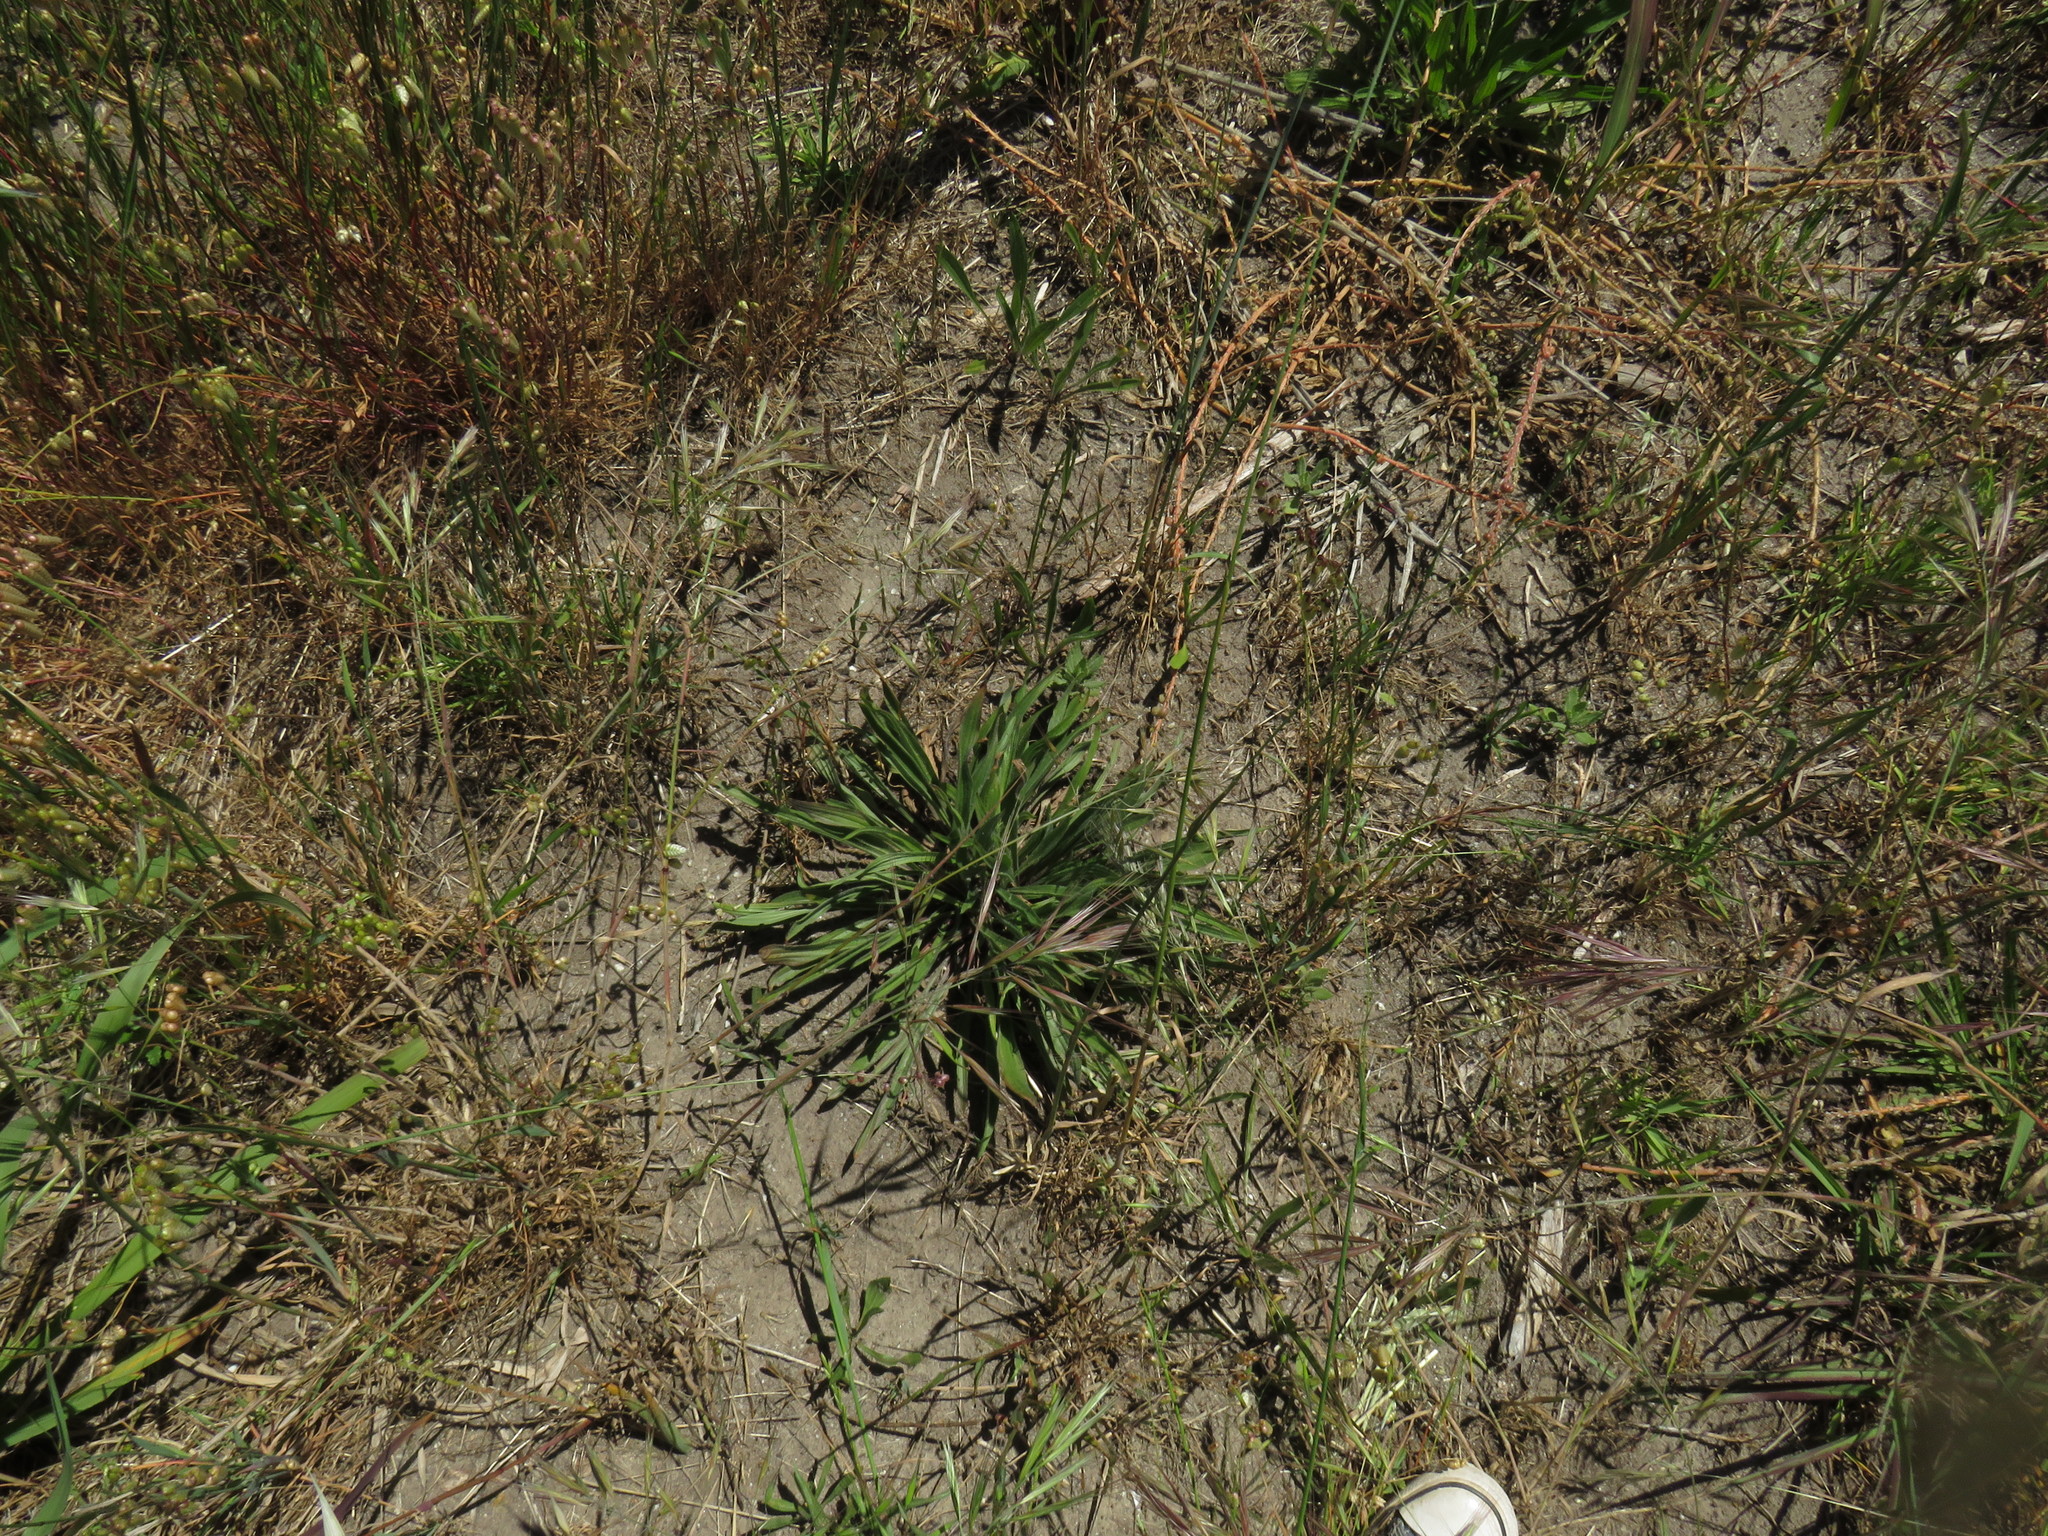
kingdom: Plantae
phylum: Tracheophyta
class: Magnoliopsida
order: Lamiales
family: Plantaginaceae
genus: Plantago
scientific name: Plantago lanceolata
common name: Ribwort plantain
